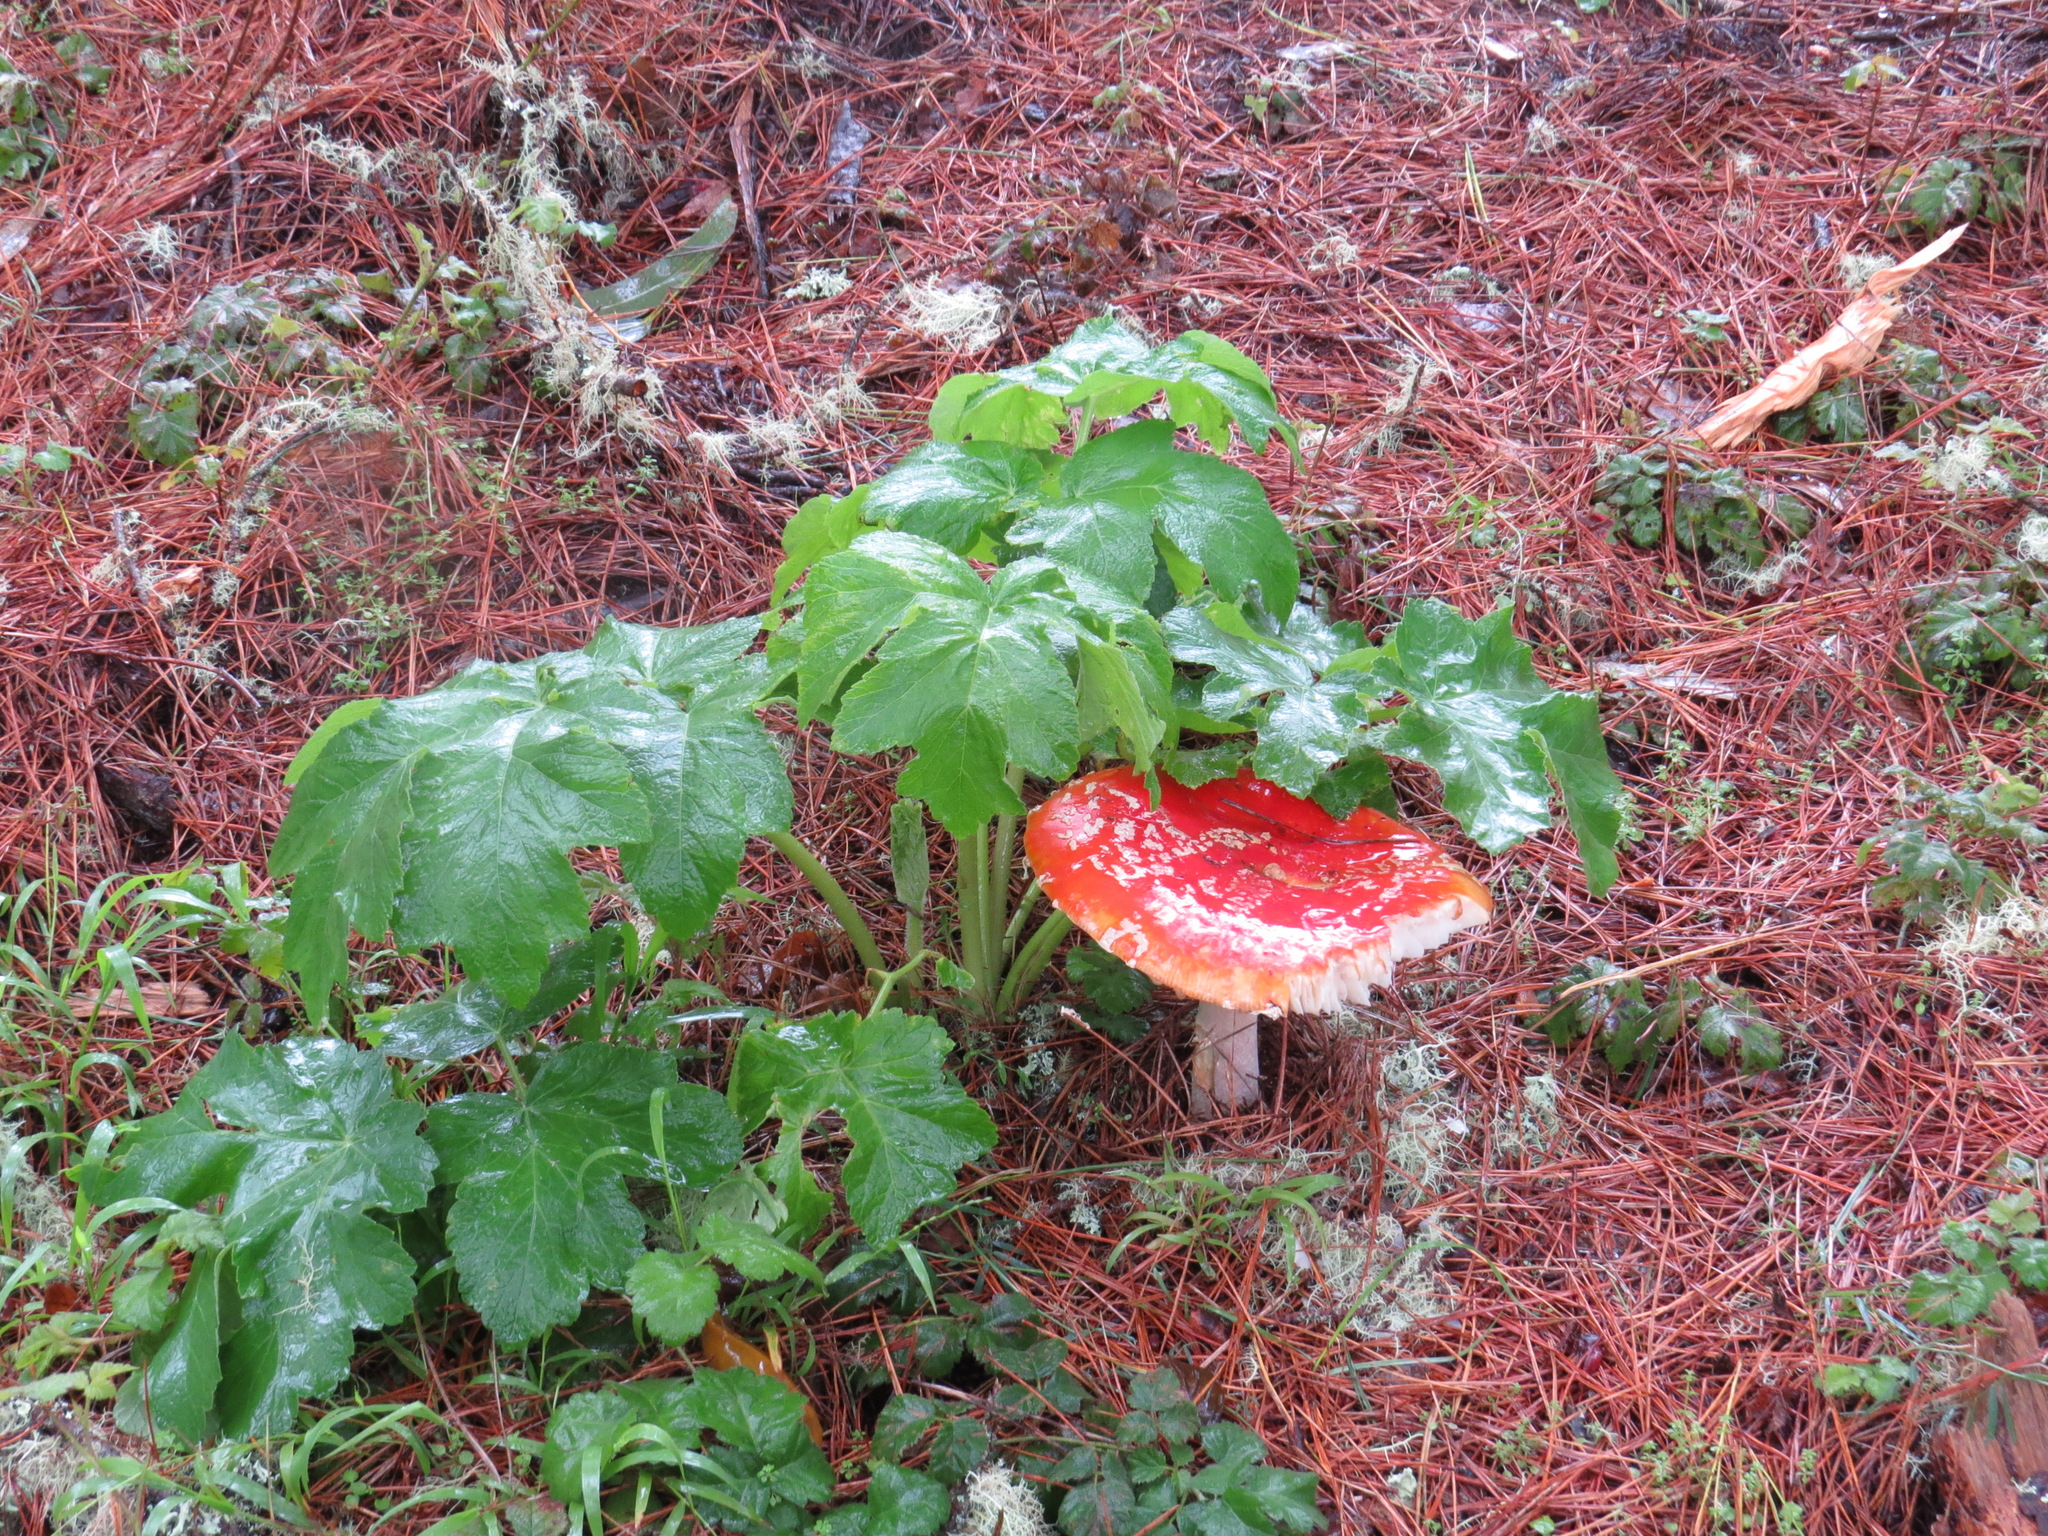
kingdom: Fungi
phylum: Basidiomycota
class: Agaricomycetes
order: Agaricales
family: Amanitaceae
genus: Amanita
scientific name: Amanita muscaria
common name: Fly agaric
